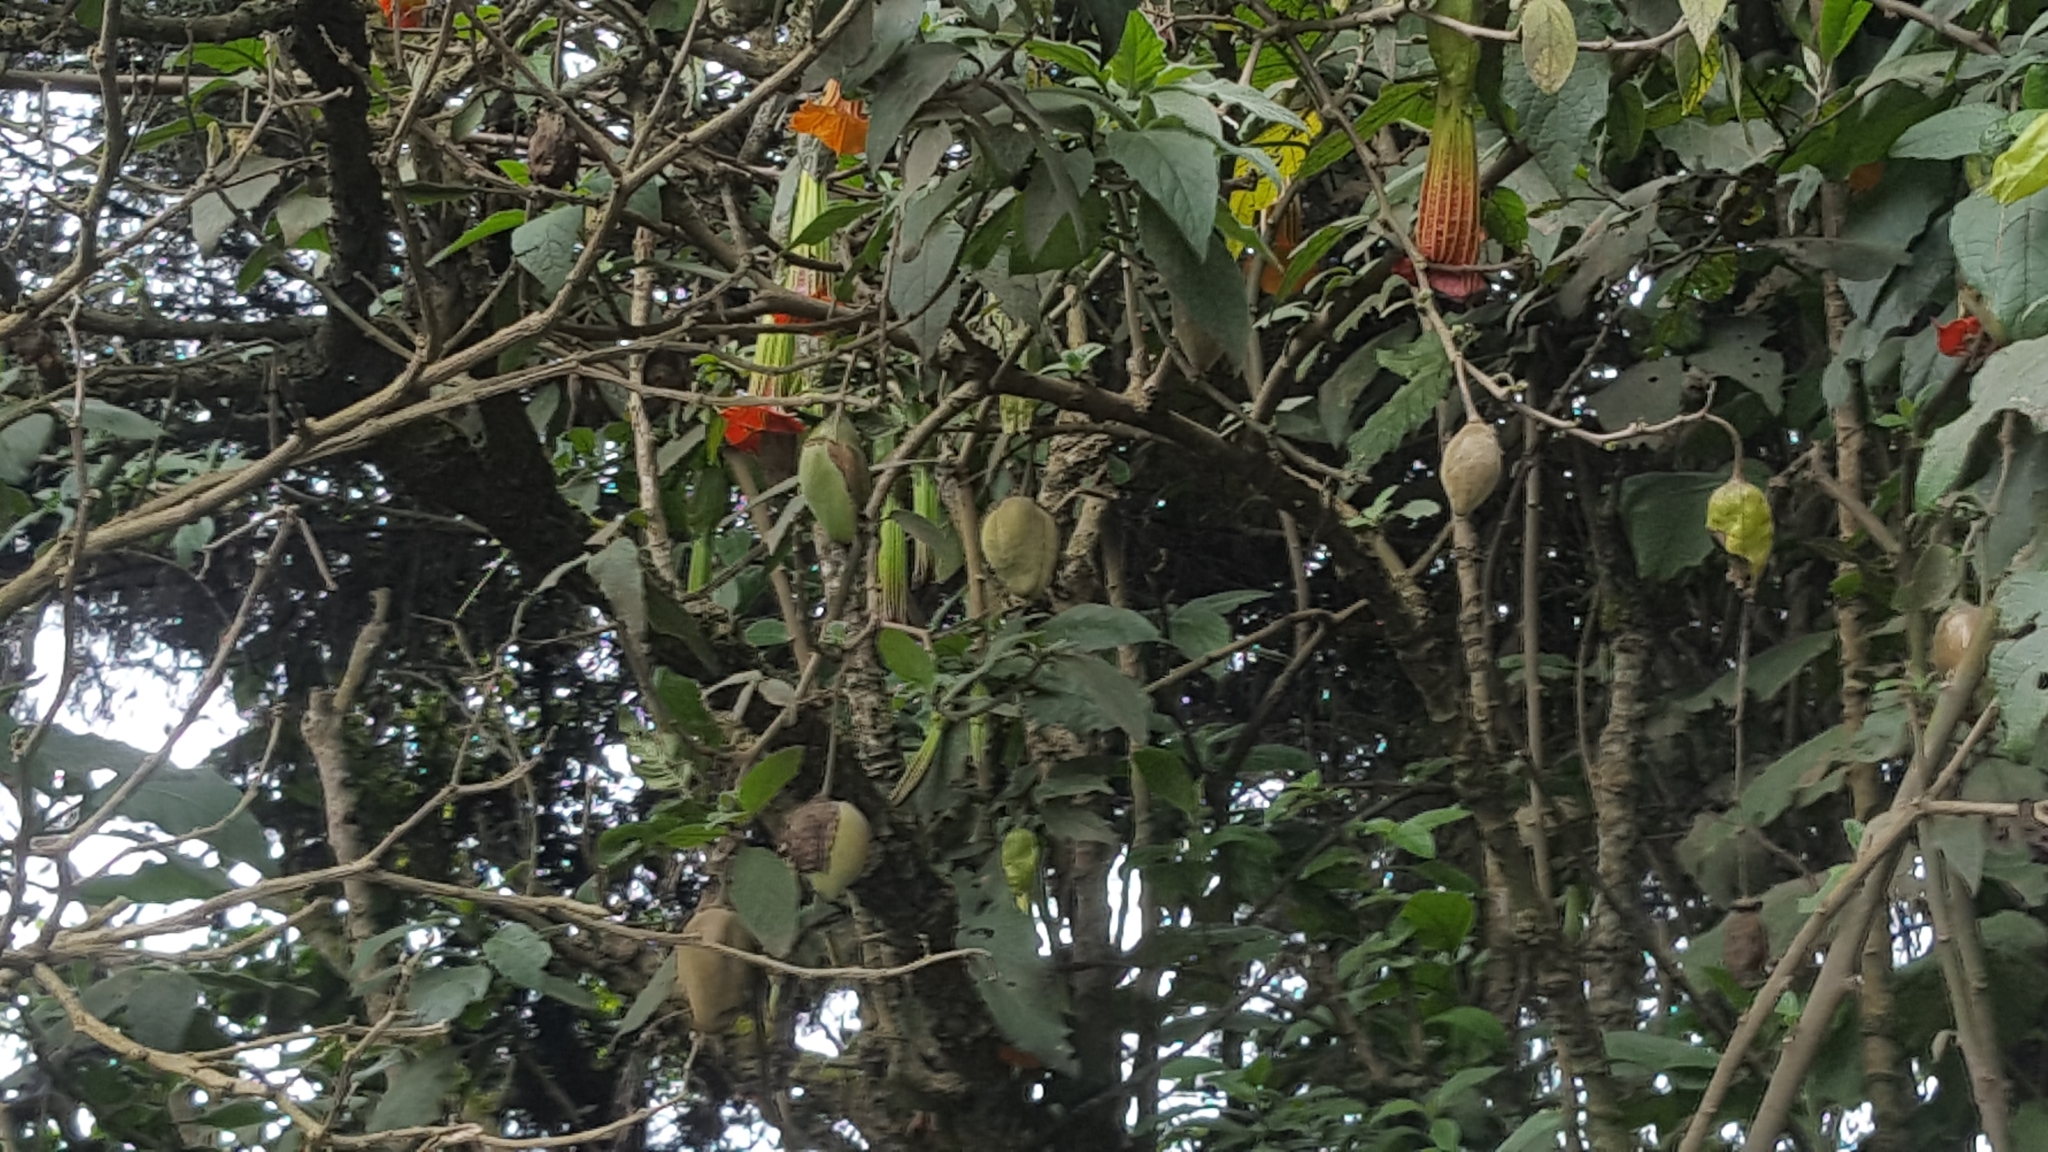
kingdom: Plantae
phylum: Tracheophyta
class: Magnoliopsida
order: Solanales
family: Solanaceae
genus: Brugmansia
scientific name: Brugmansia sanguinea
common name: Red floripontio
